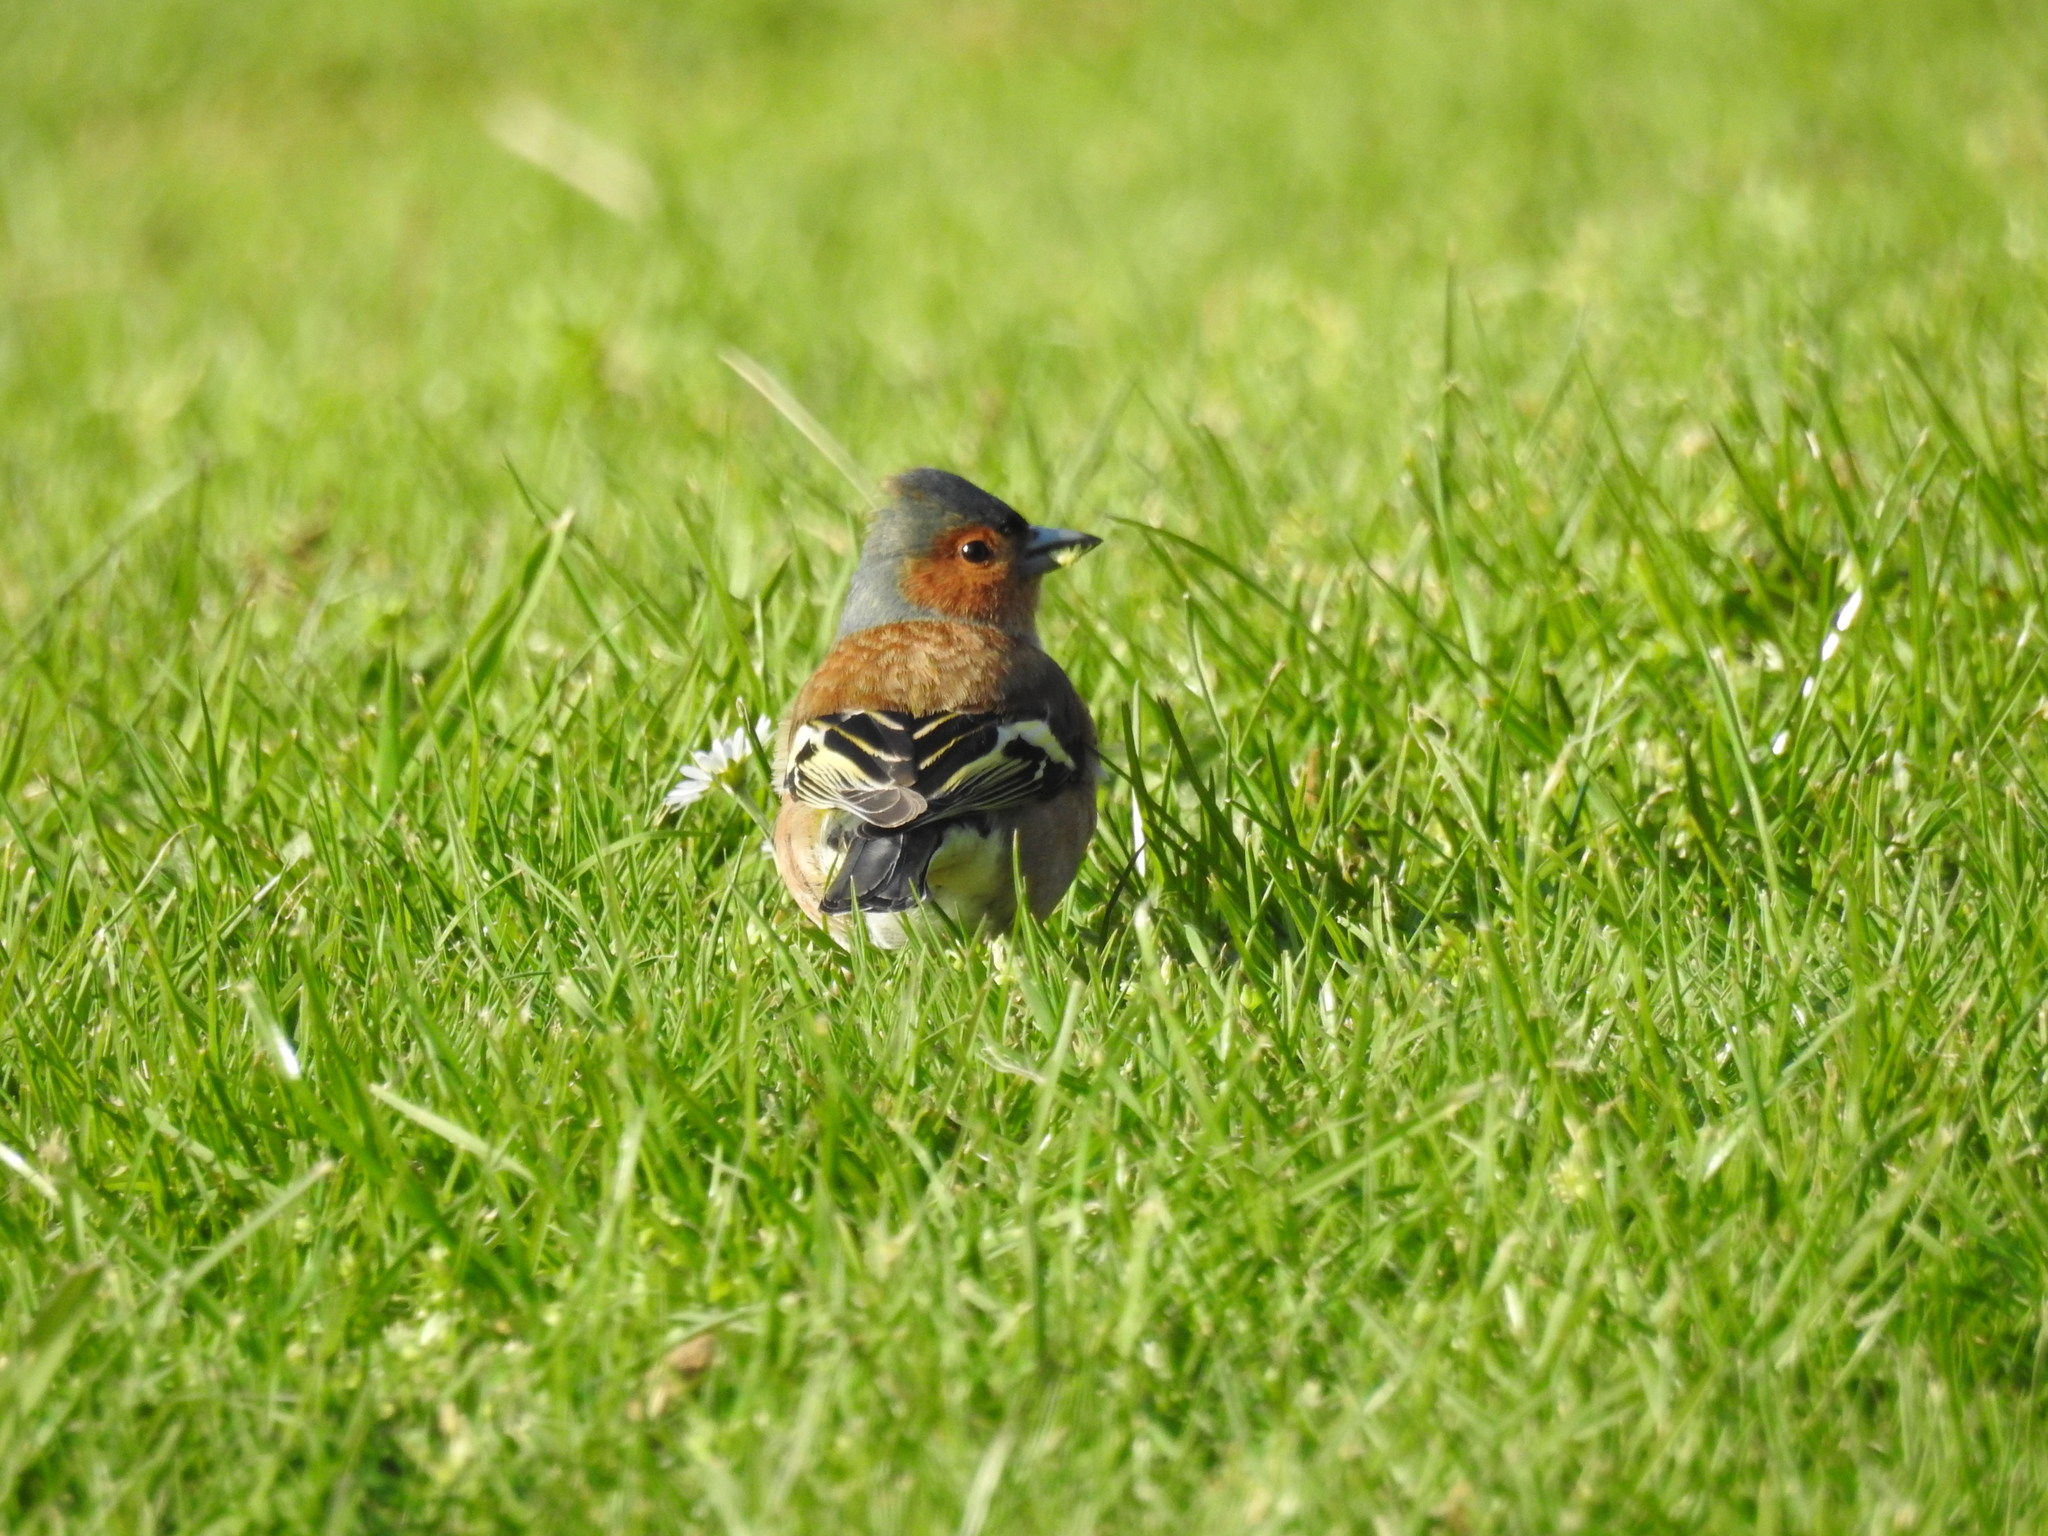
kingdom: Animalia
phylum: Chordata
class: Aves
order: Passeriformes
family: Fringillidae
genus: Fringilla
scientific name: Fringilla coelebs
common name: Common chaffinch
